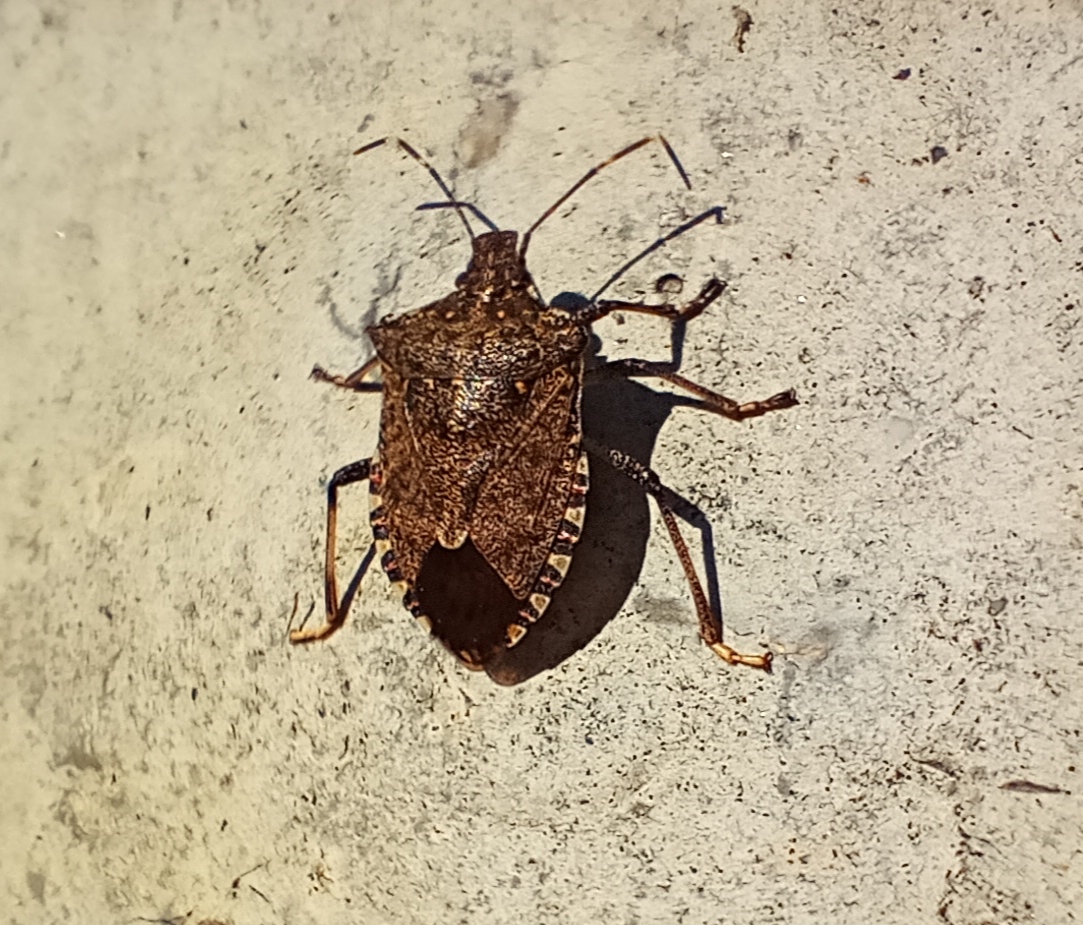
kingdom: Animalia
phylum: Arthropoda
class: Insecta
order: Hemiptera
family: Pentatomidae
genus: Halyomorpha
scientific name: Halyomorpha halys
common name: Brown marmorated stink bug
